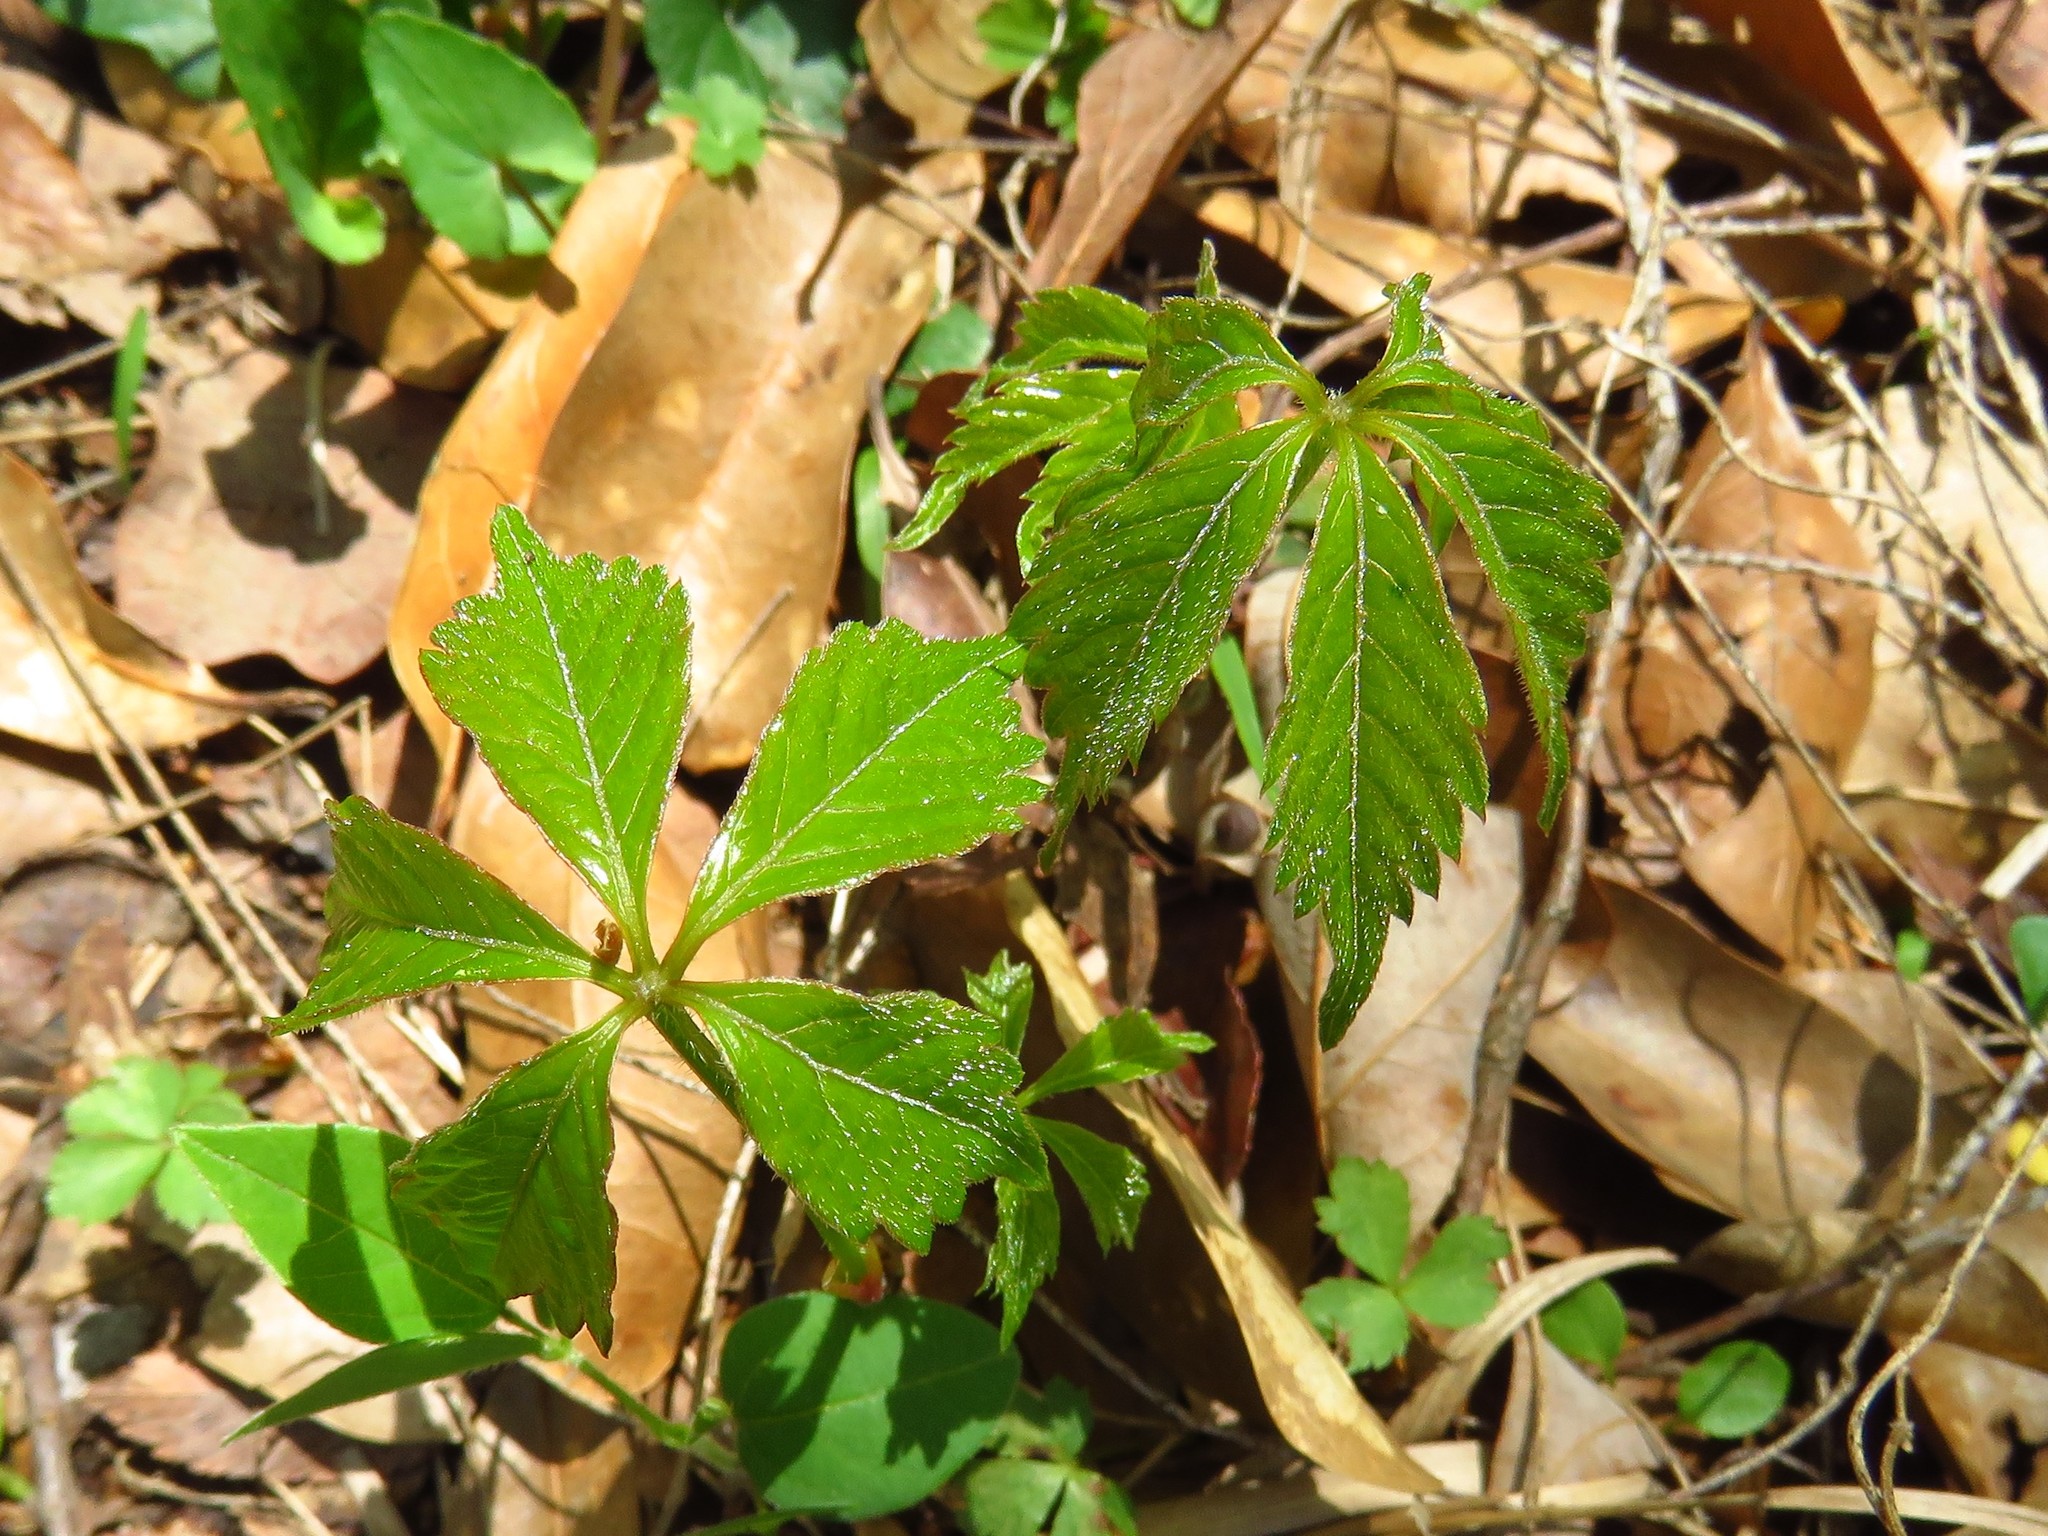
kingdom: Plantae
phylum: Tracheophyta
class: Magnoliopsida
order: Vitales
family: Vitaceae
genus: Parthenocissus
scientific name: Parthenocissus quinquefolia
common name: Virginia-creeper
